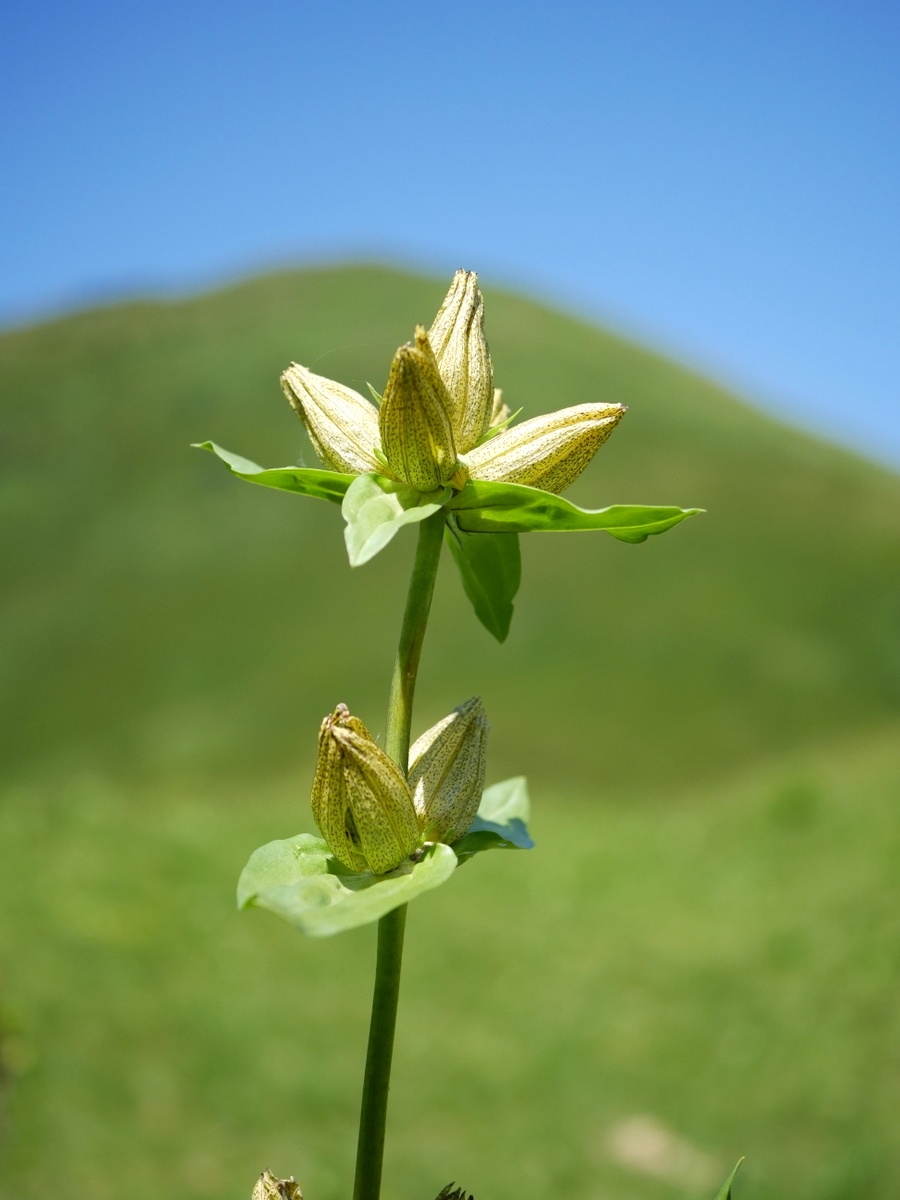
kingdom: Plantae
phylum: Tracheophyta
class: Magnoliopsida
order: Gentianales
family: Gentianaceae
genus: Gentiana
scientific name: Gentiana punctata
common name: Spotted gentian
